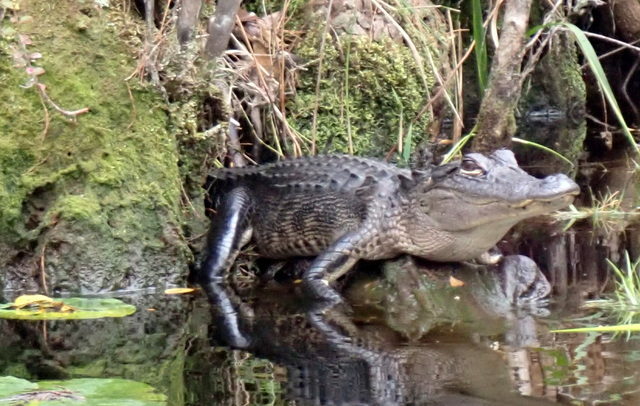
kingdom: Animalia
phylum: Chordata
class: Crocodylia
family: Alligatoridae
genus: Alligator
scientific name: Alligator mississippiensis
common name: American alligator
